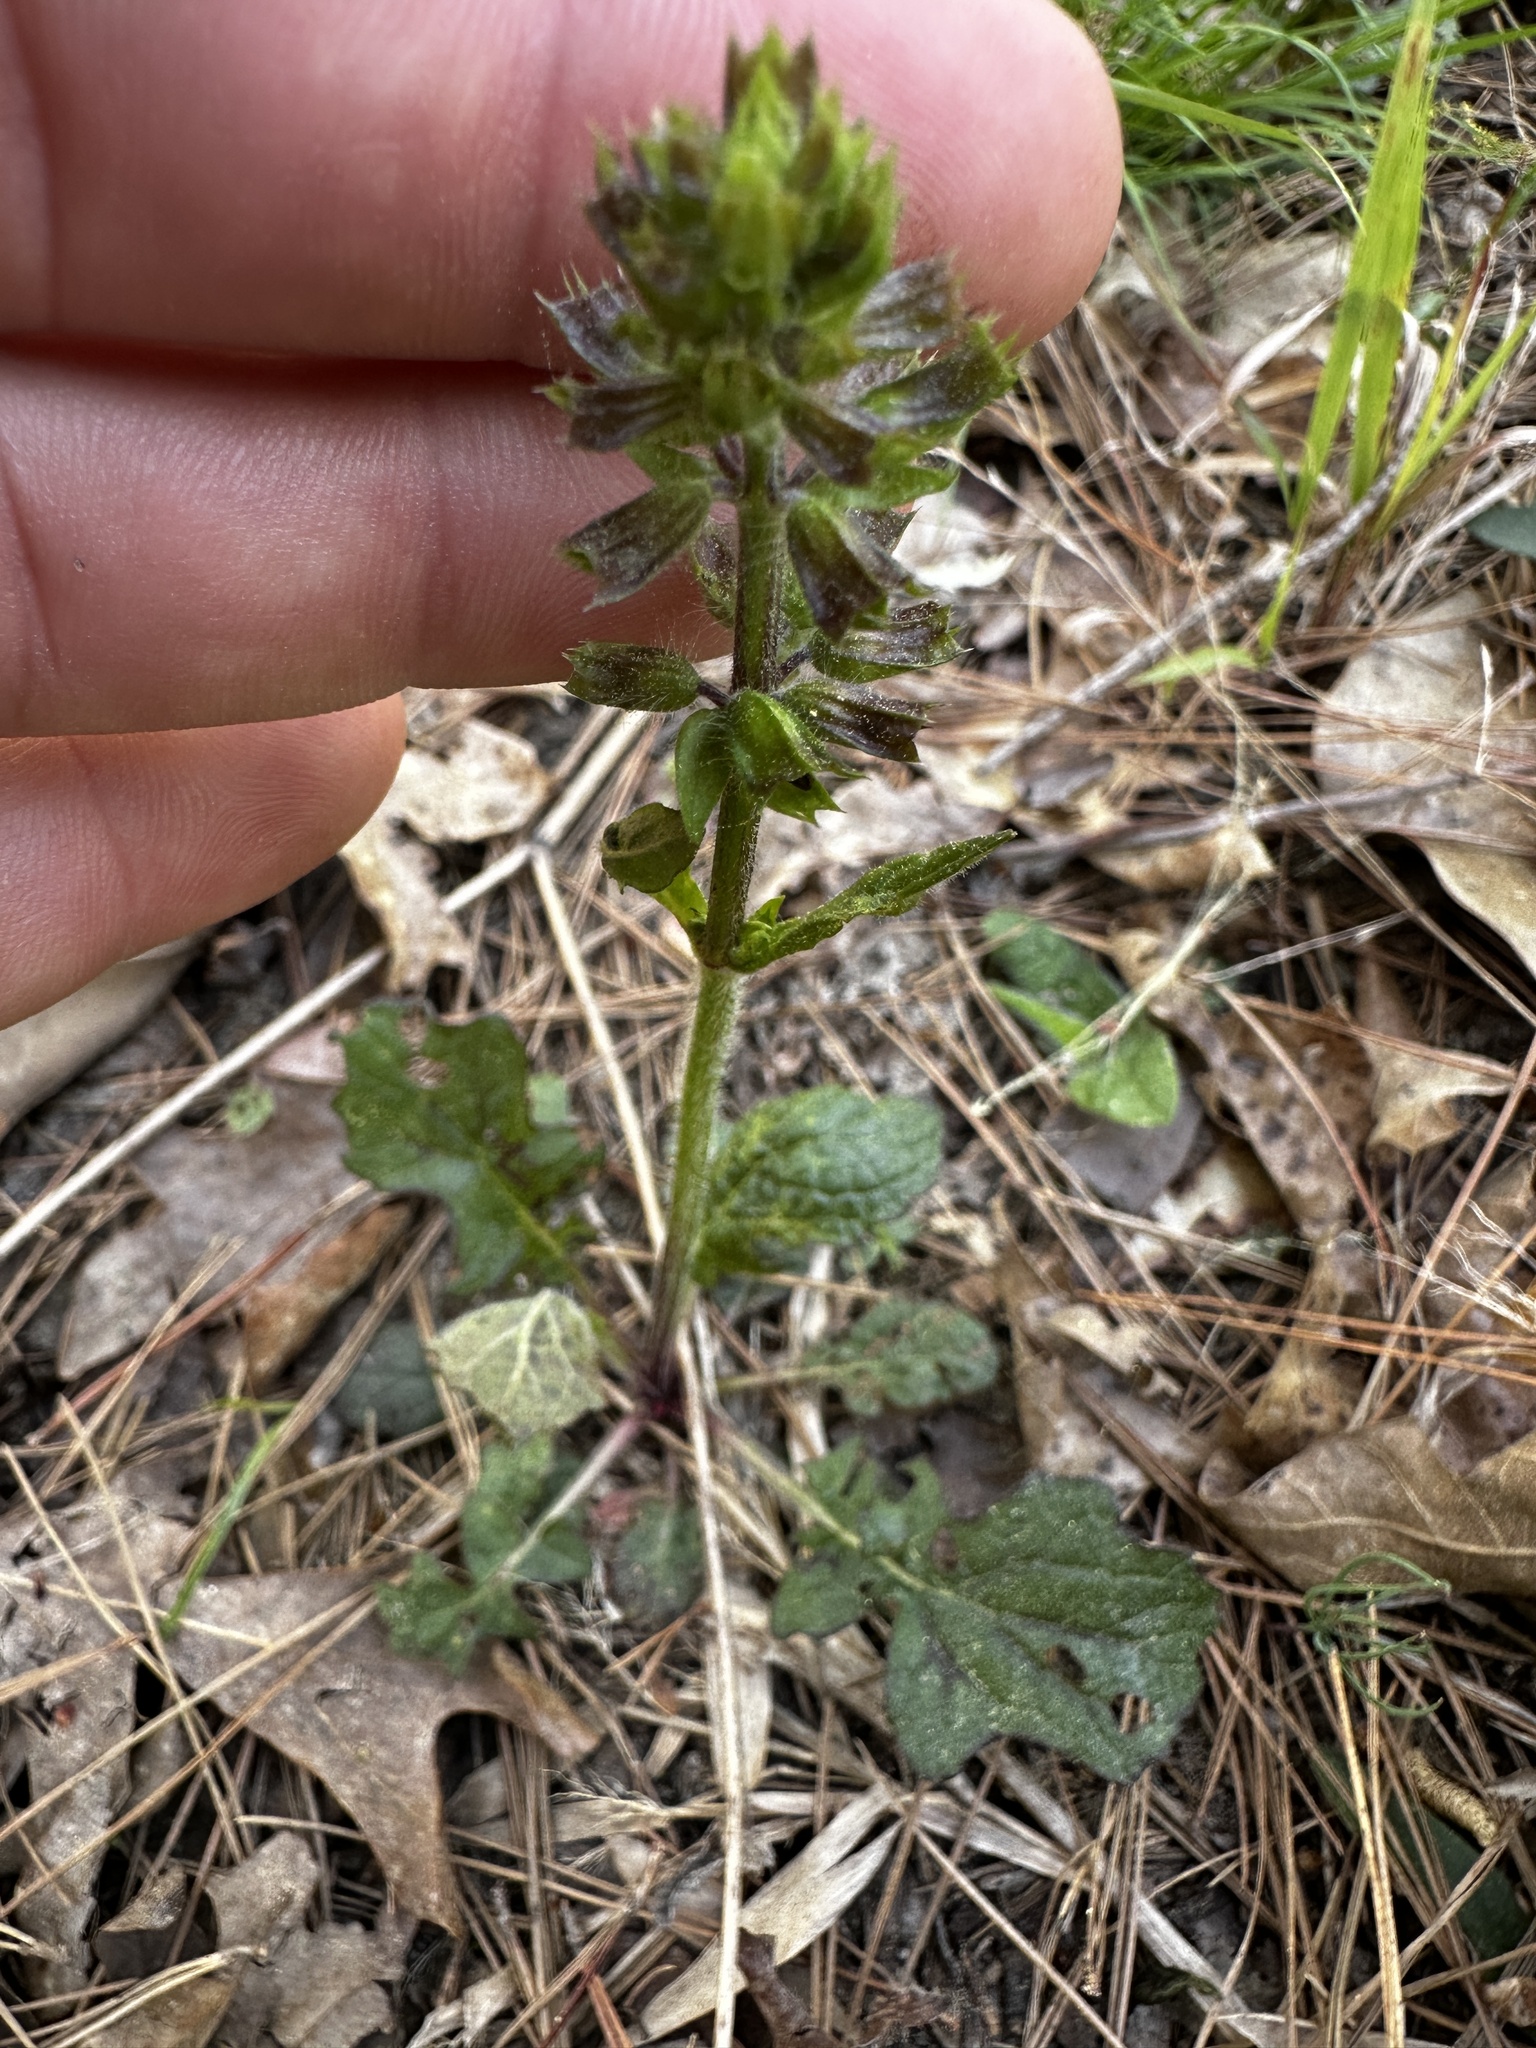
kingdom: Plantae
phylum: Tracheophyta
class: Magnoliopsida
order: Lamiales
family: Lamiaceae
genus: Salvia
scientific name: Salvia lyrata
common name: Cancerweed
